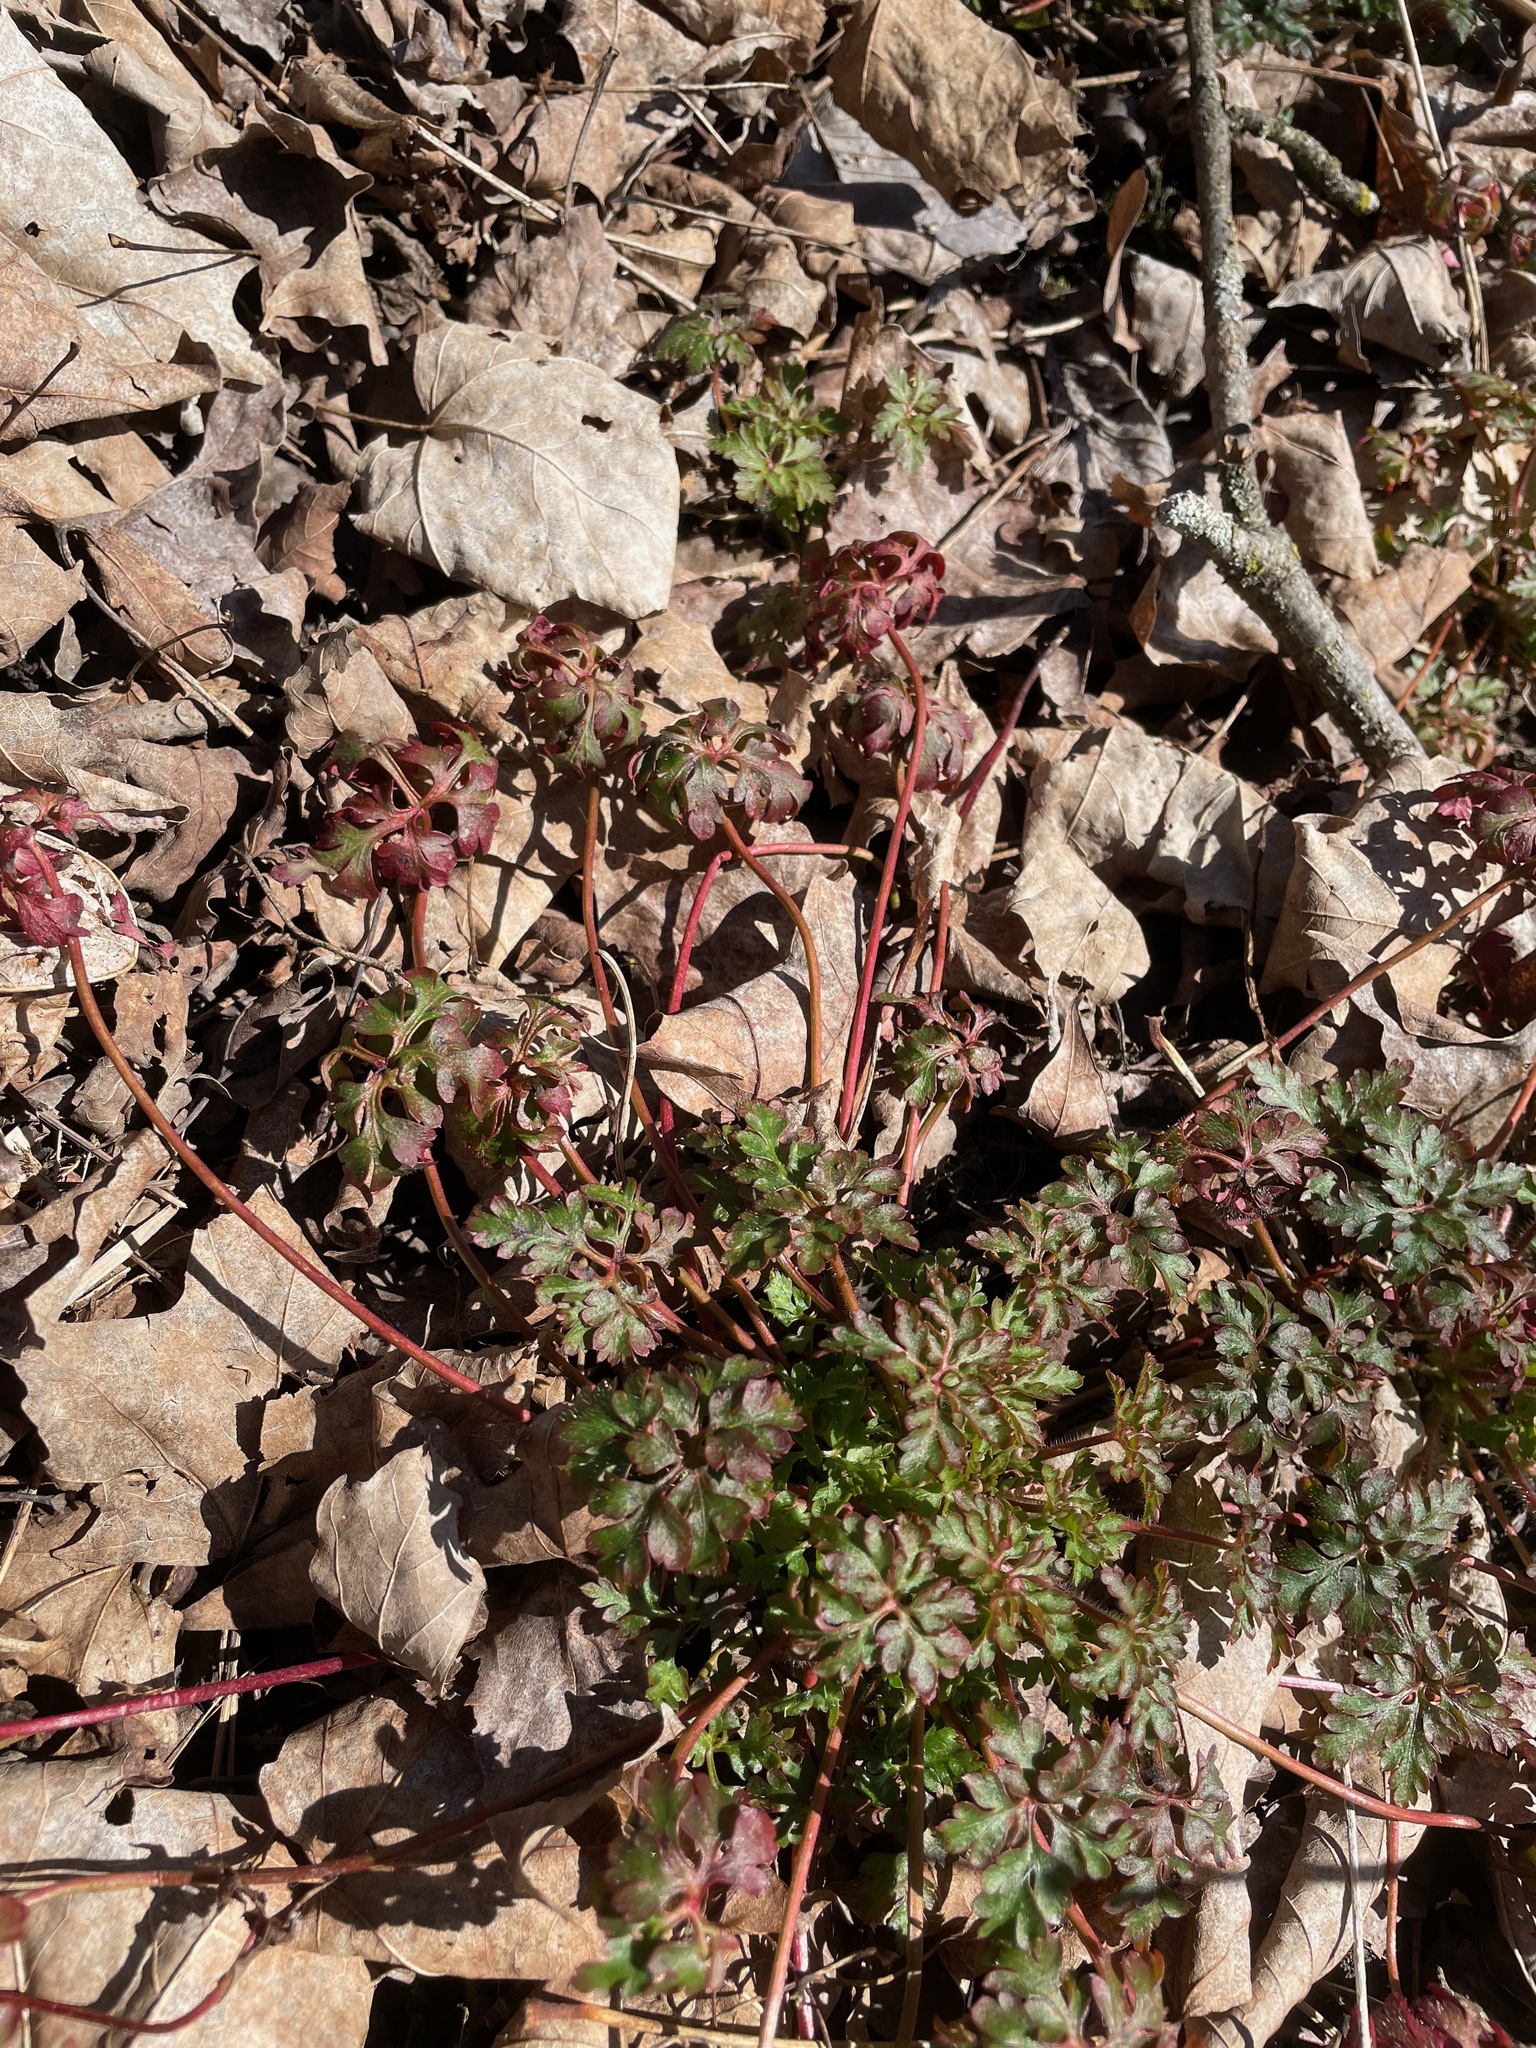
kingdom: Plantae
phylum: Tracheophyta
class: Magnoliopsida
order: Geraniales
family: Geraniaceae
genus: Geranium
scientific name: Geranium robertianum
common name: Herb-robert
